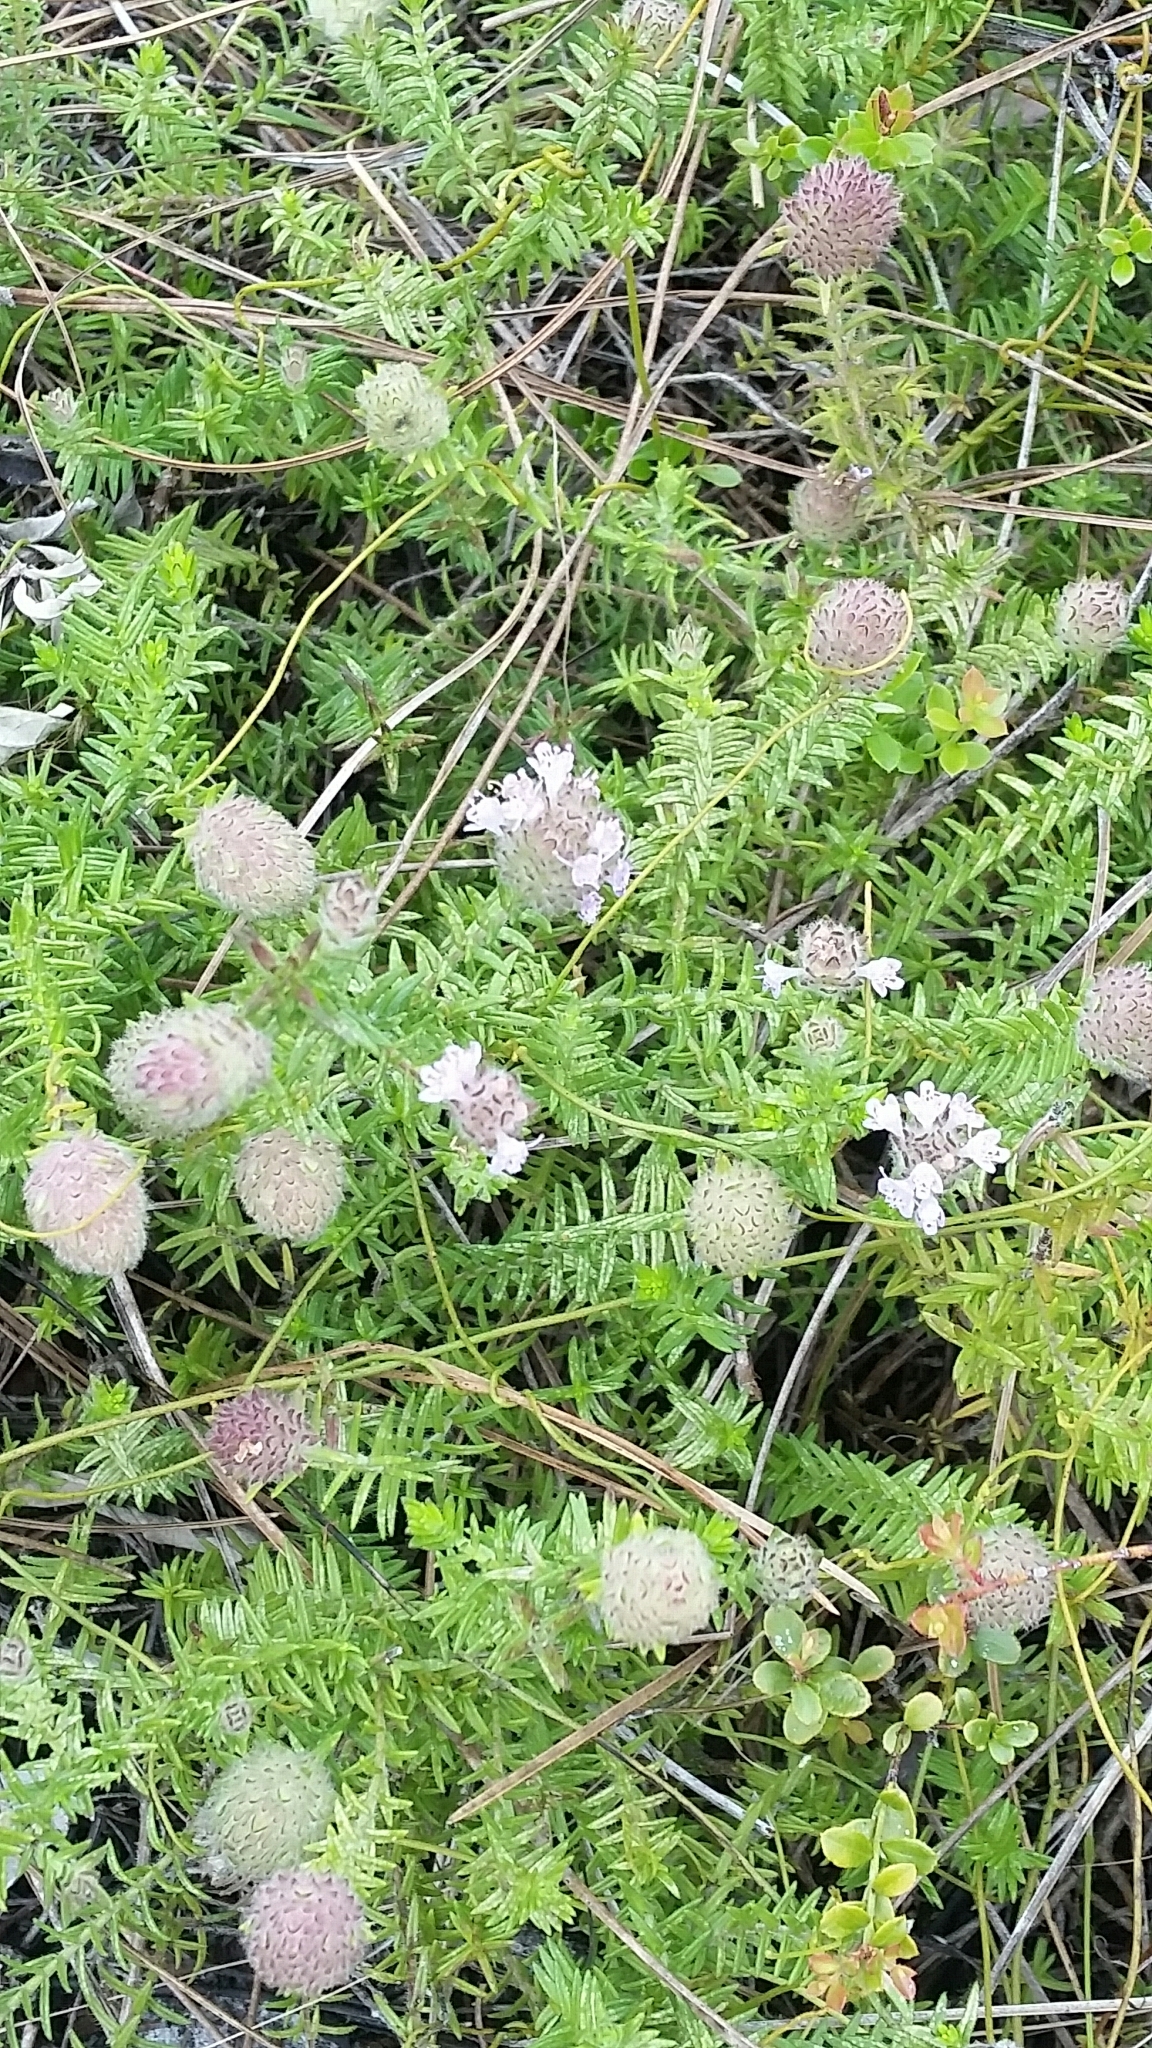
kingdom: Plantae
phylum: Tracheophyta
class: Magnoliopsida
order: Lamiales
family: Lamiaceae
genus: Piloblephis
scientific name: Piloblephis rigida
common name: Wild pennyroyal
